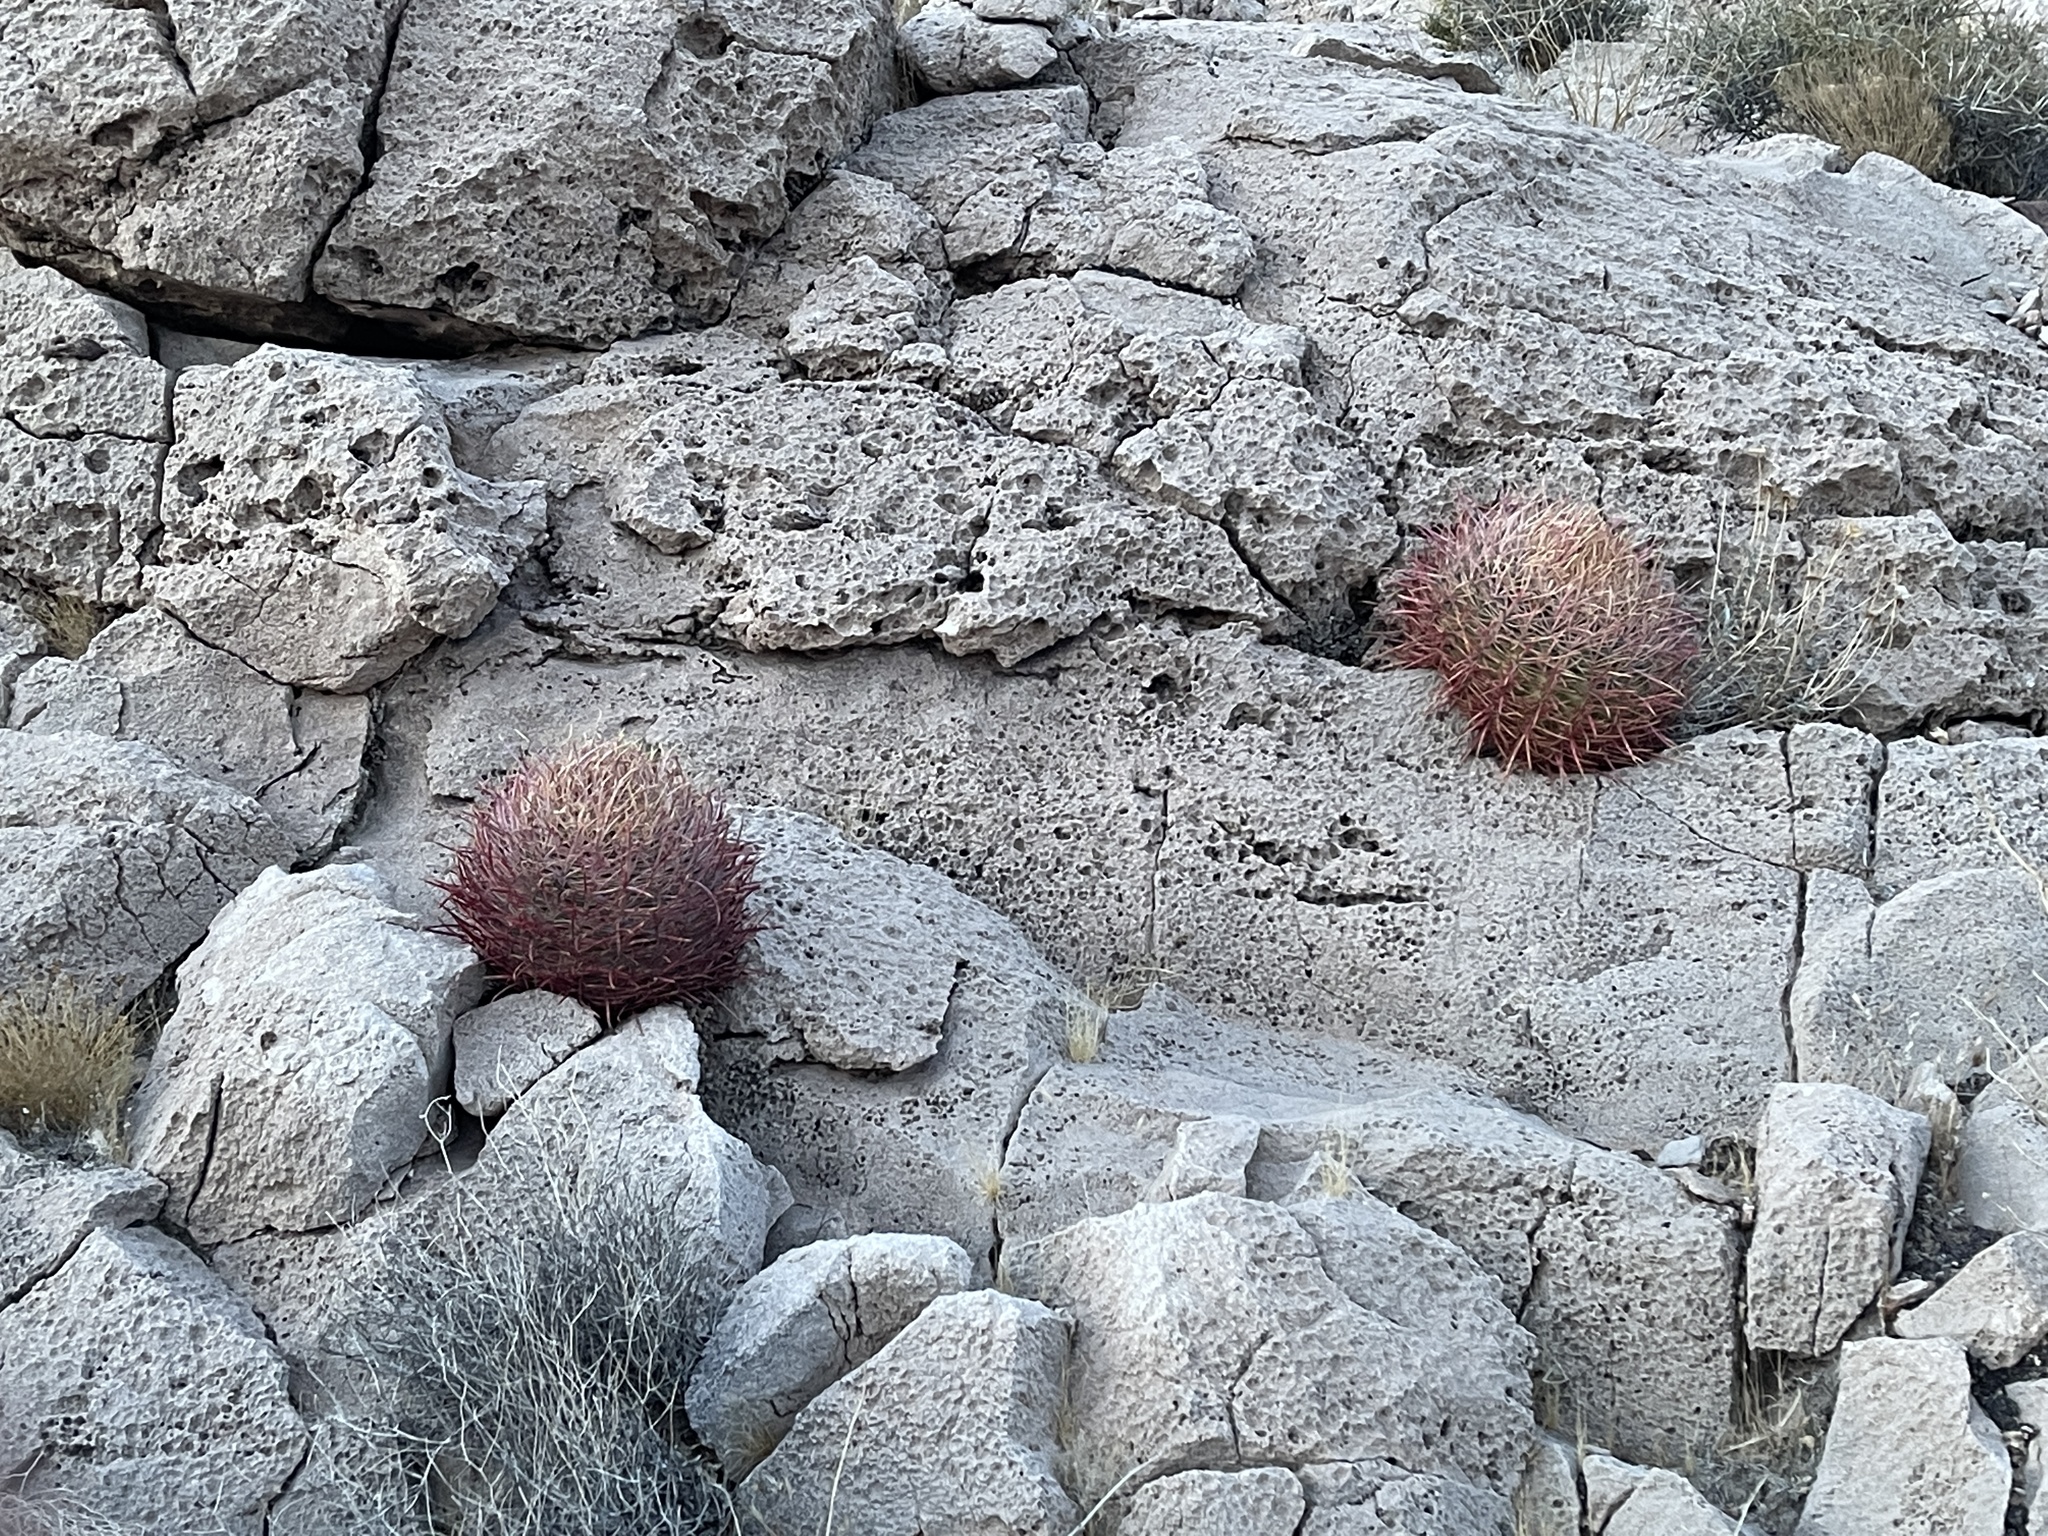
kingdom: Plantae
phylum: Tracheophyta
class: Magnoliopsida
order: Caryophyllales
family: Cactaceae
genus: Ferocactus
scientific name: Ferocactus cylindraceus
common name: California barrel cactus
